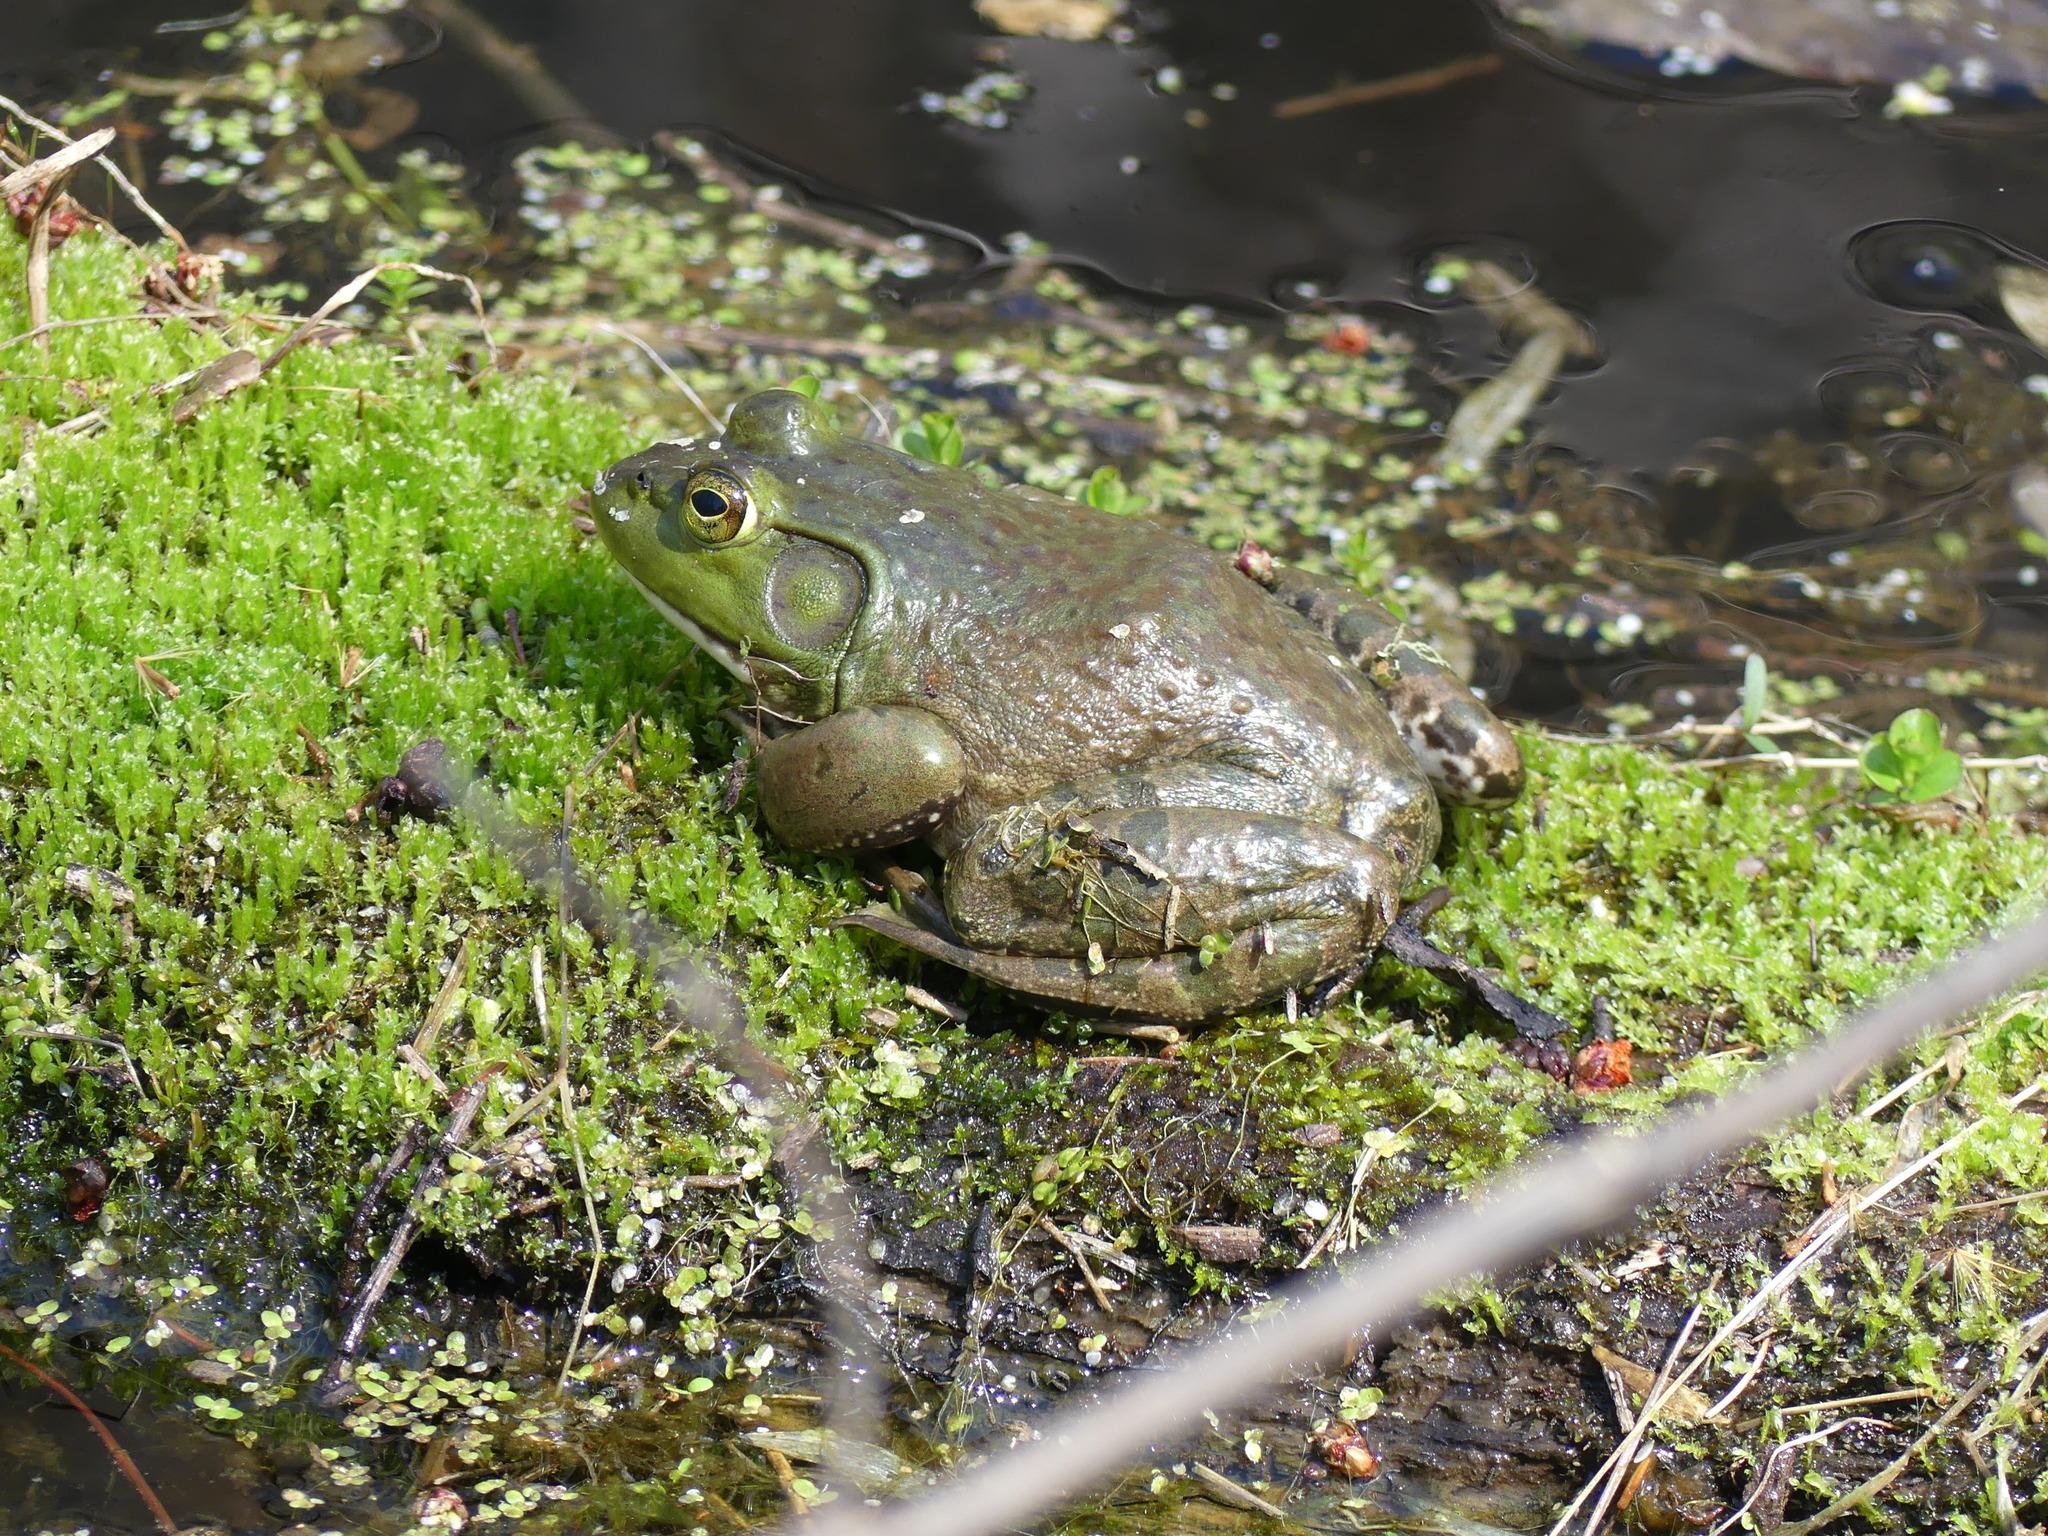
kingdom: Animalia
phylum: Chordata
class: Amphibia
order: Anura
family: Ranidae
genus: Lithobates
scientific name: Lithobates catesbeianus
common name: American bullfrog
